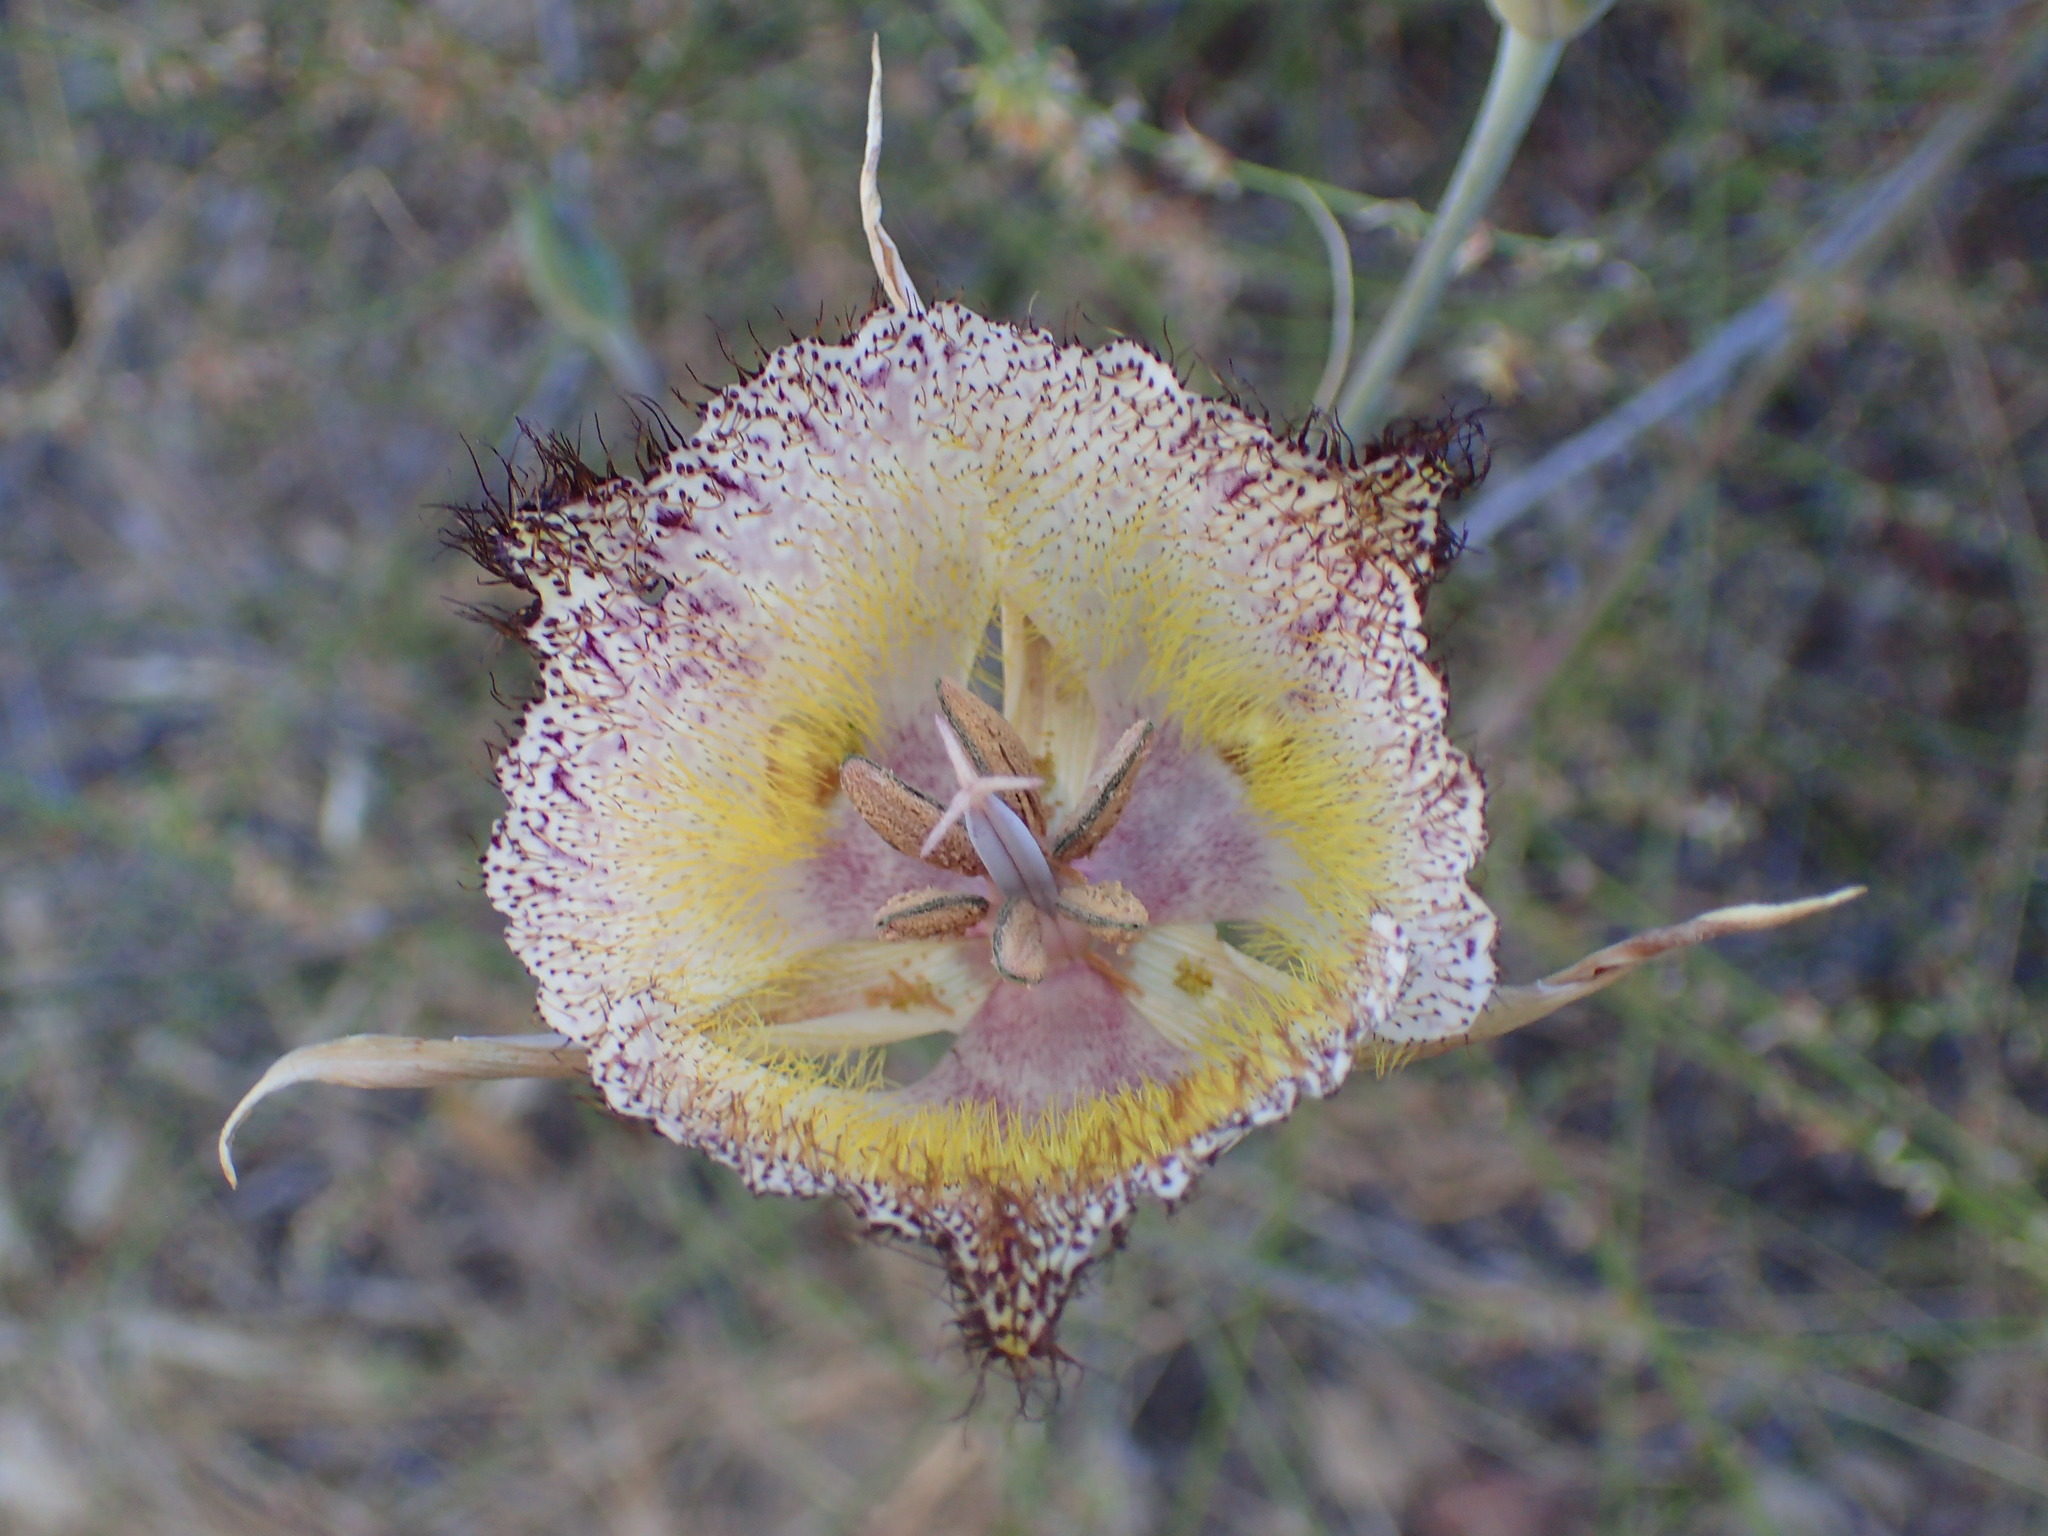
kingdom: Plantae
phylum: Tracheophyta
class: Liliopsida
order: Liliales
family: Liliaceae
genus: Calochortus
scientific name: Calochortus fimbriatus
